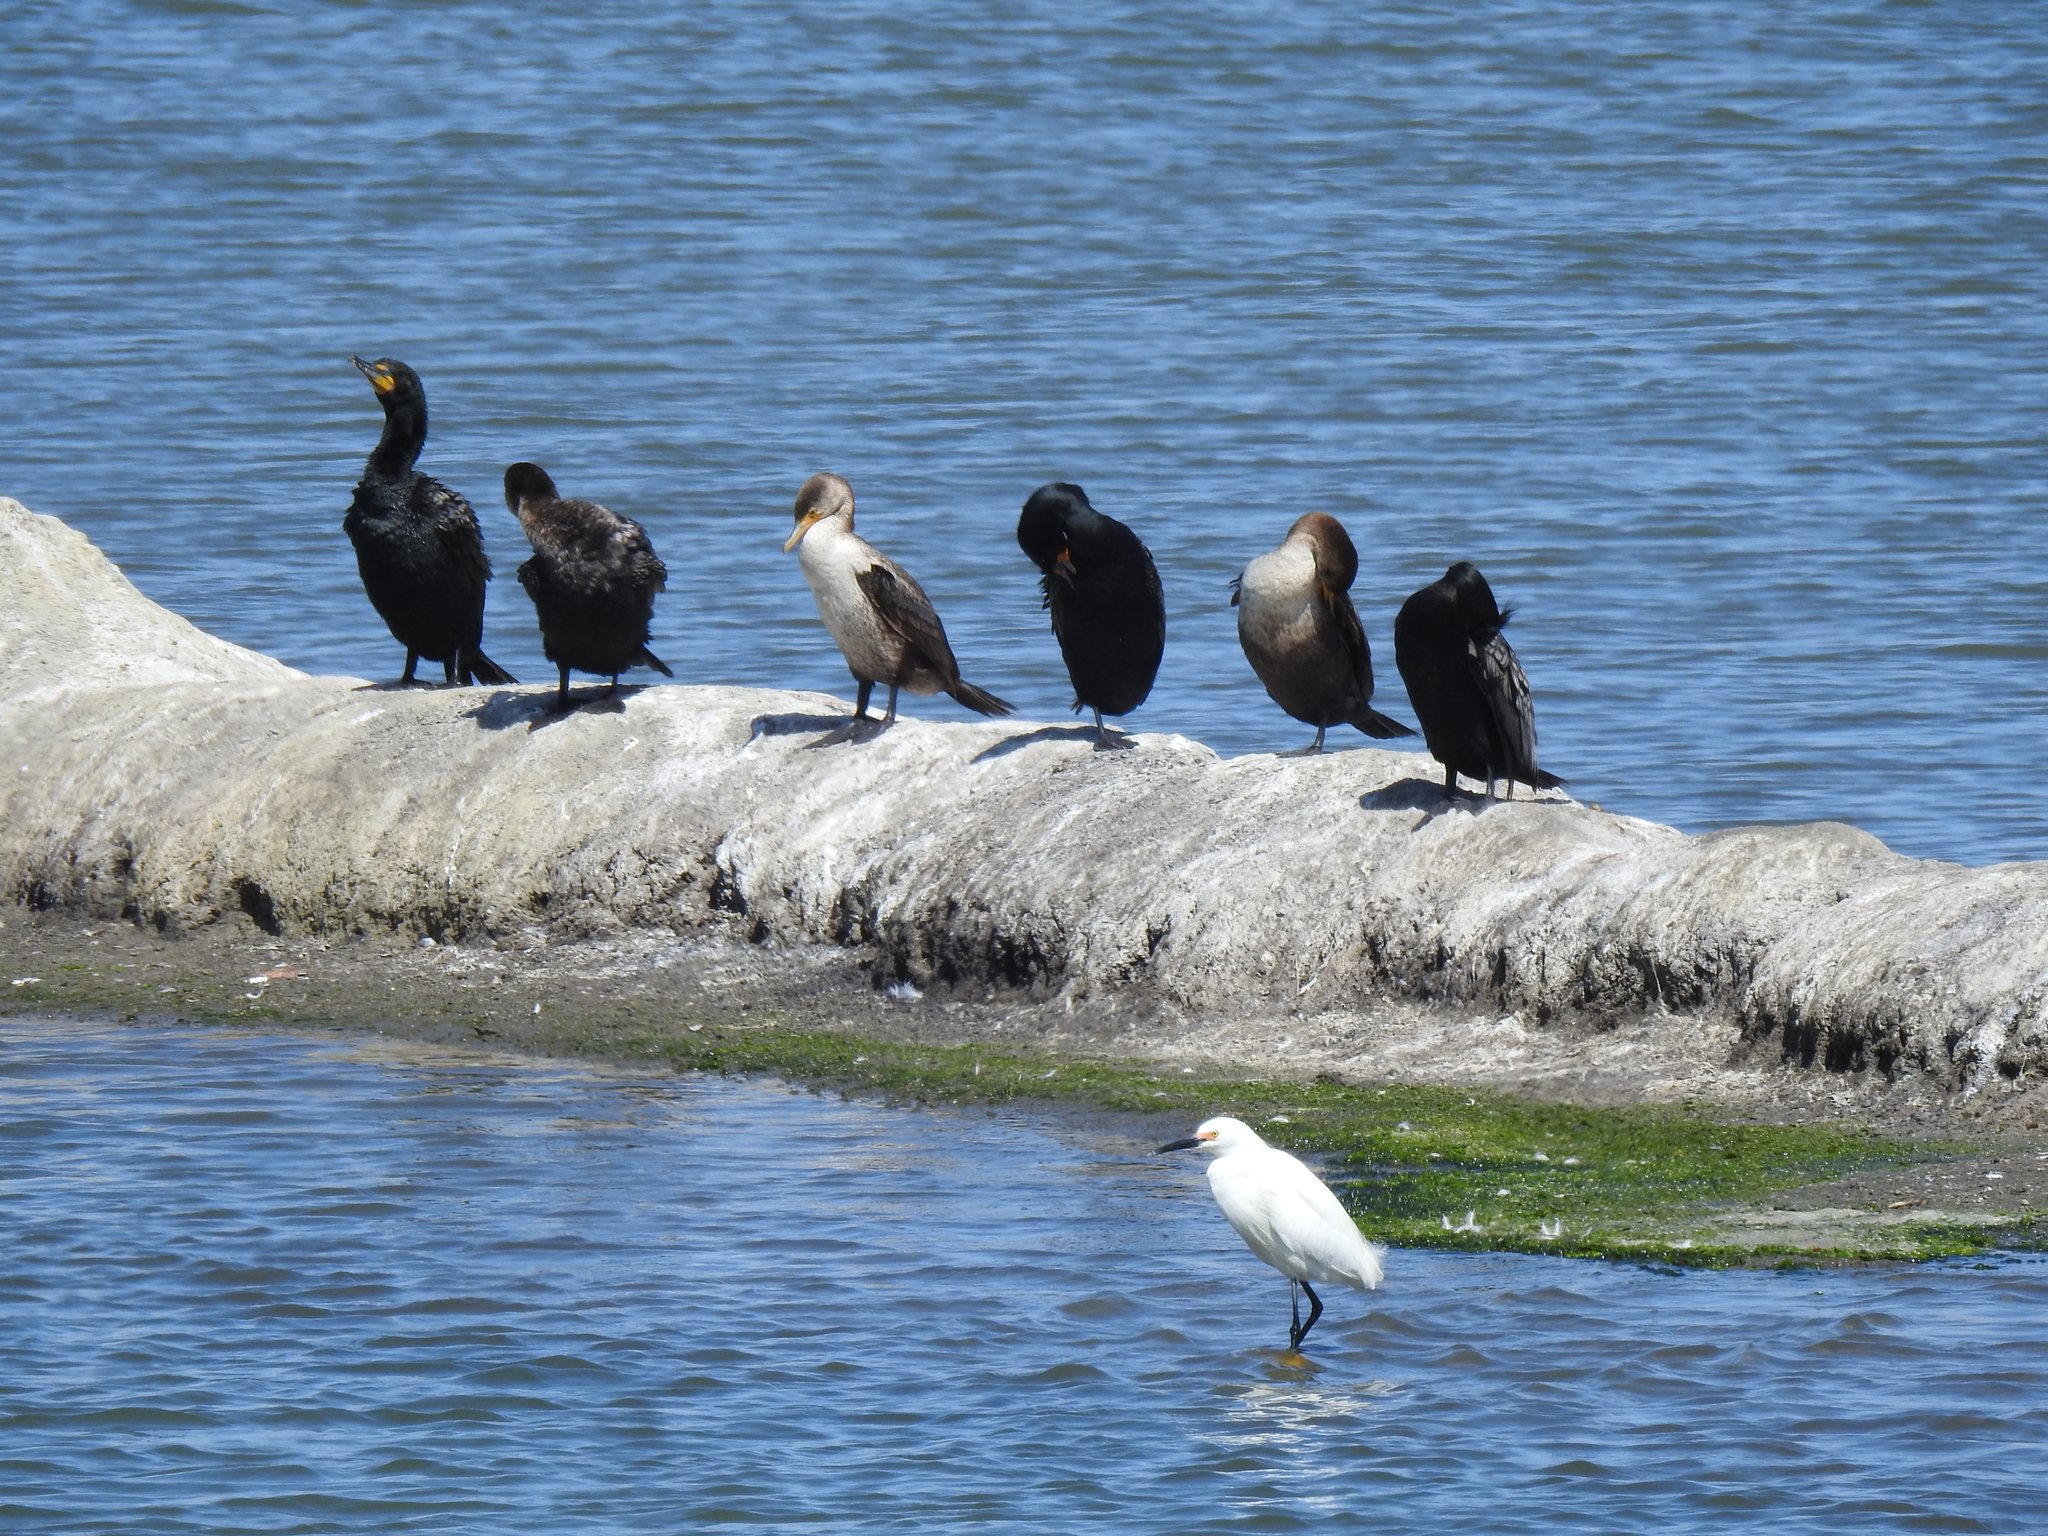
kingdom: Animalia
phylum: Chordata
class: Aves
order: Suliformes
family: Phalacrocoracidae
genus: Phalacrocorax
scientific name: Phalacrocorax auritus
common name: Double-crested cormorant
